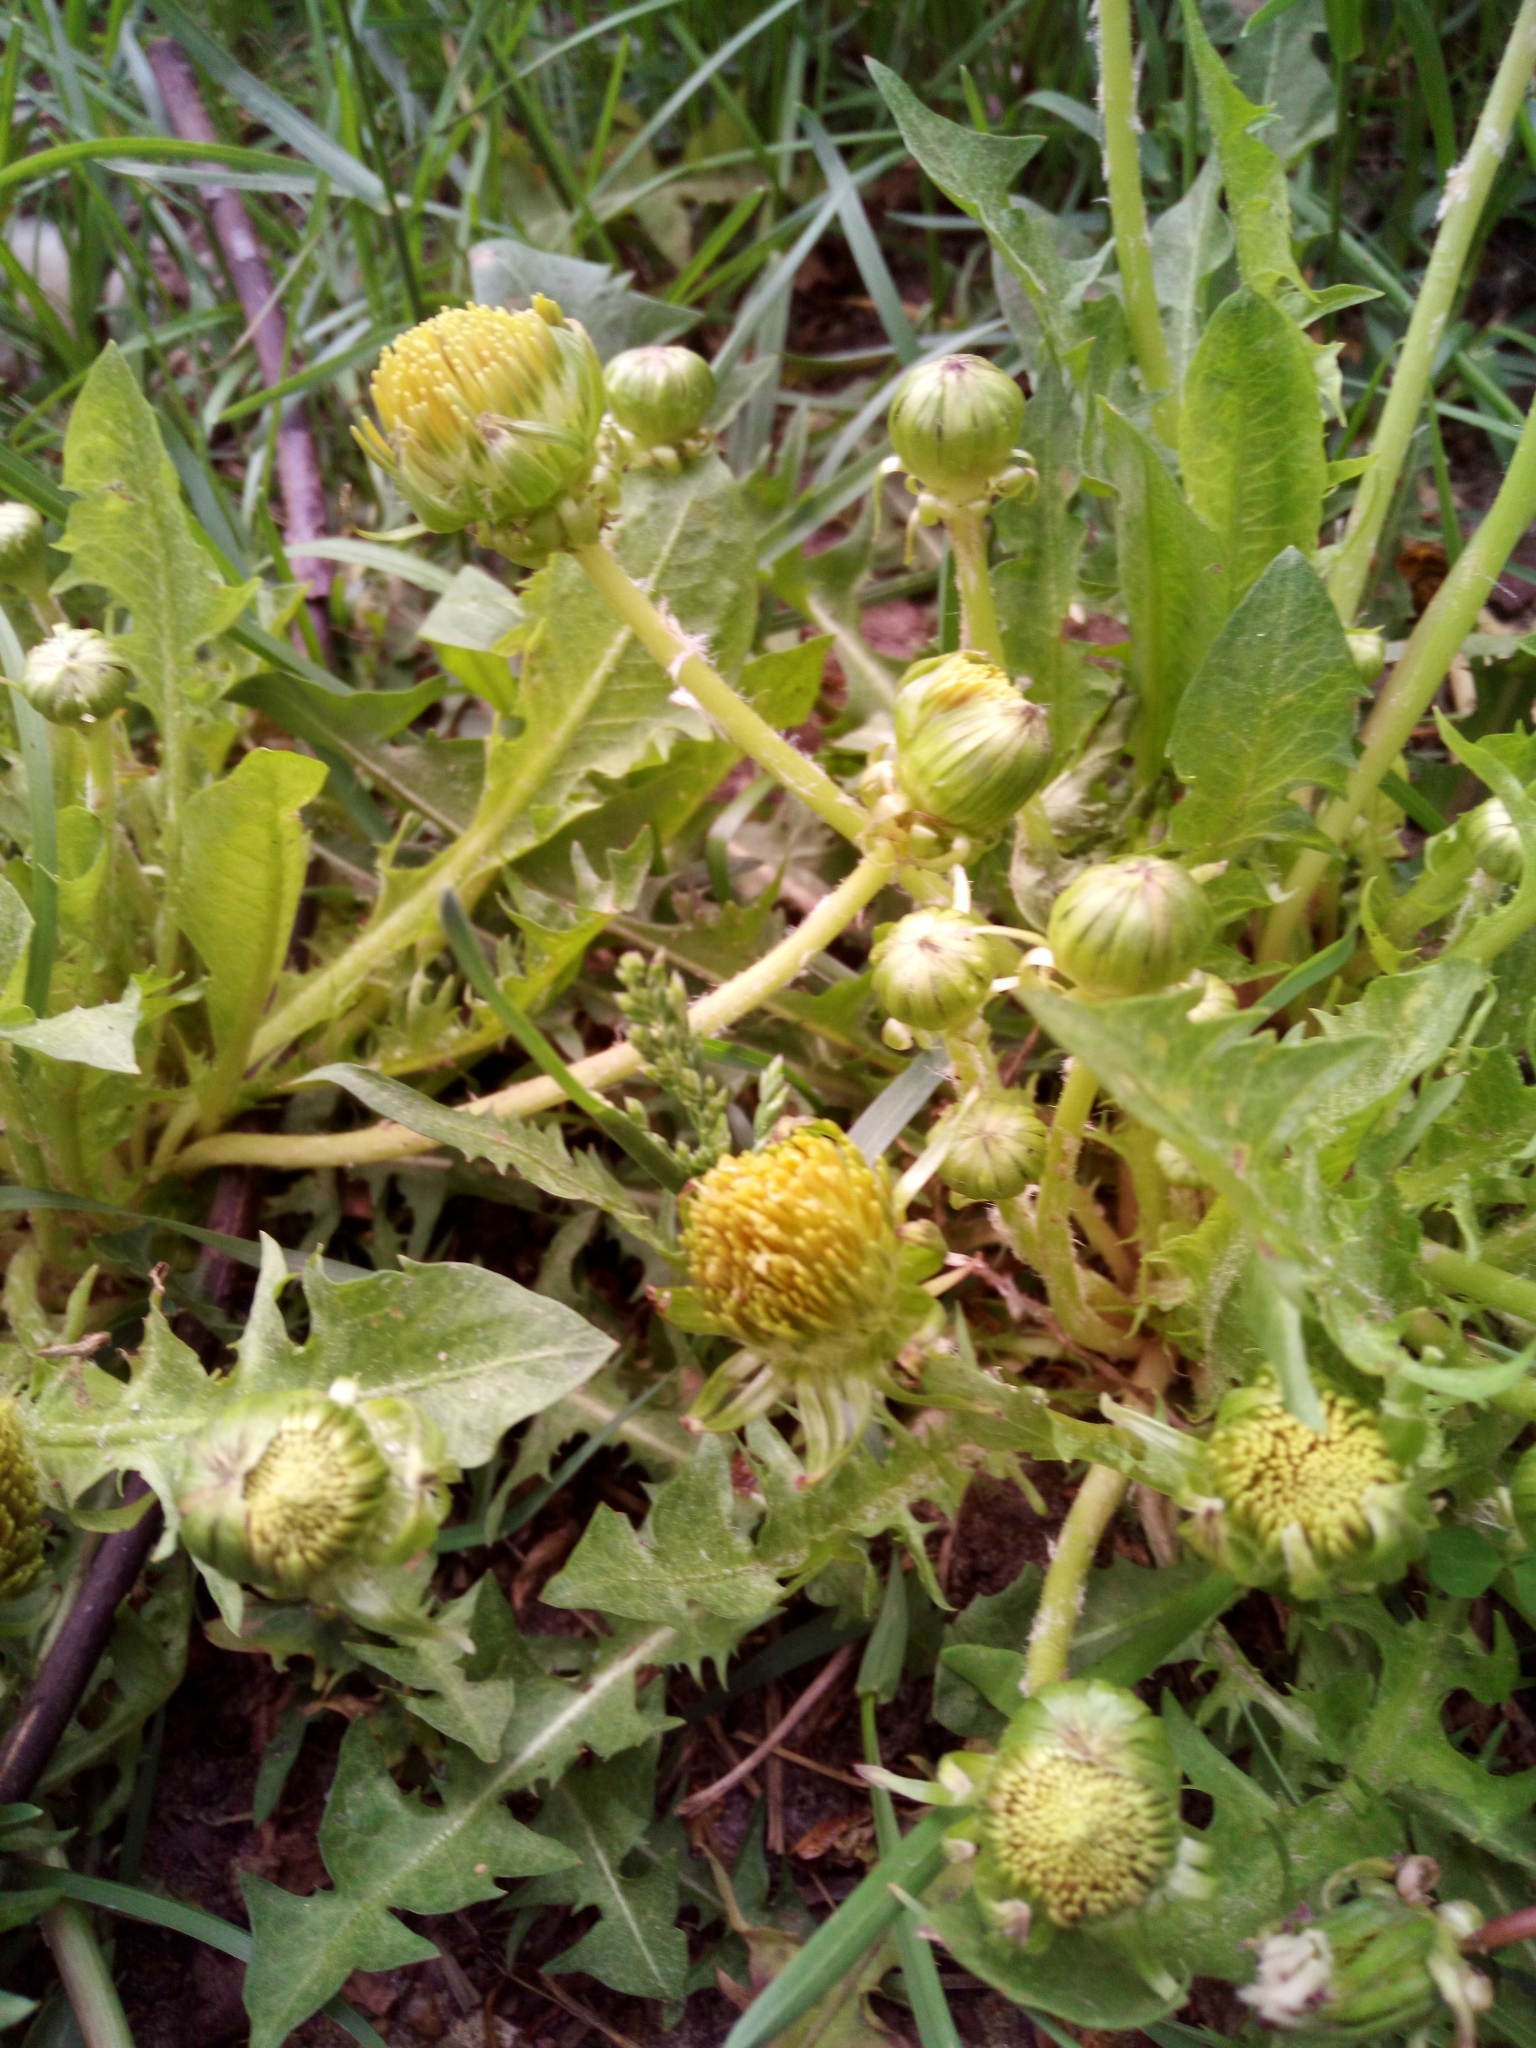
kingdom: Plantae
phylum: Tracheophyta
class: Magnoliopsida
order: Asterales
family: Asteraceae
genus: Taraxacum
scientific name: Taraxacum officinale
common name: Common dandelion
